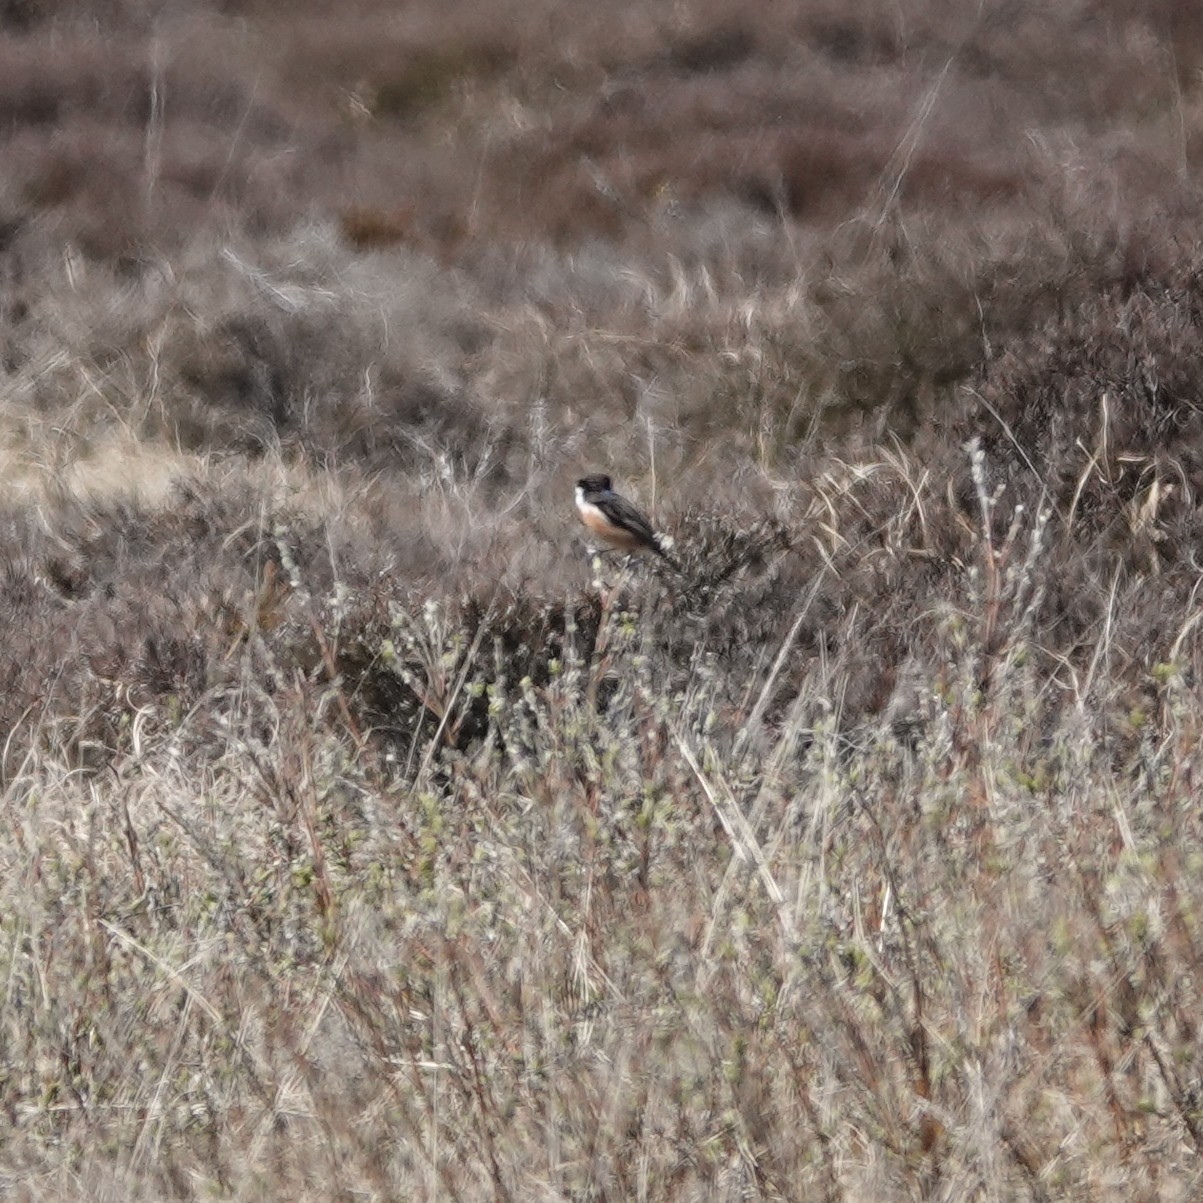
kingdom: Animalia
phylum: Chordata
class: Aves
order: Passeriformes
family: Muscicapidae
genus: Saxicola
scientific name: Saxicola rubicola
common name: European stonechat
